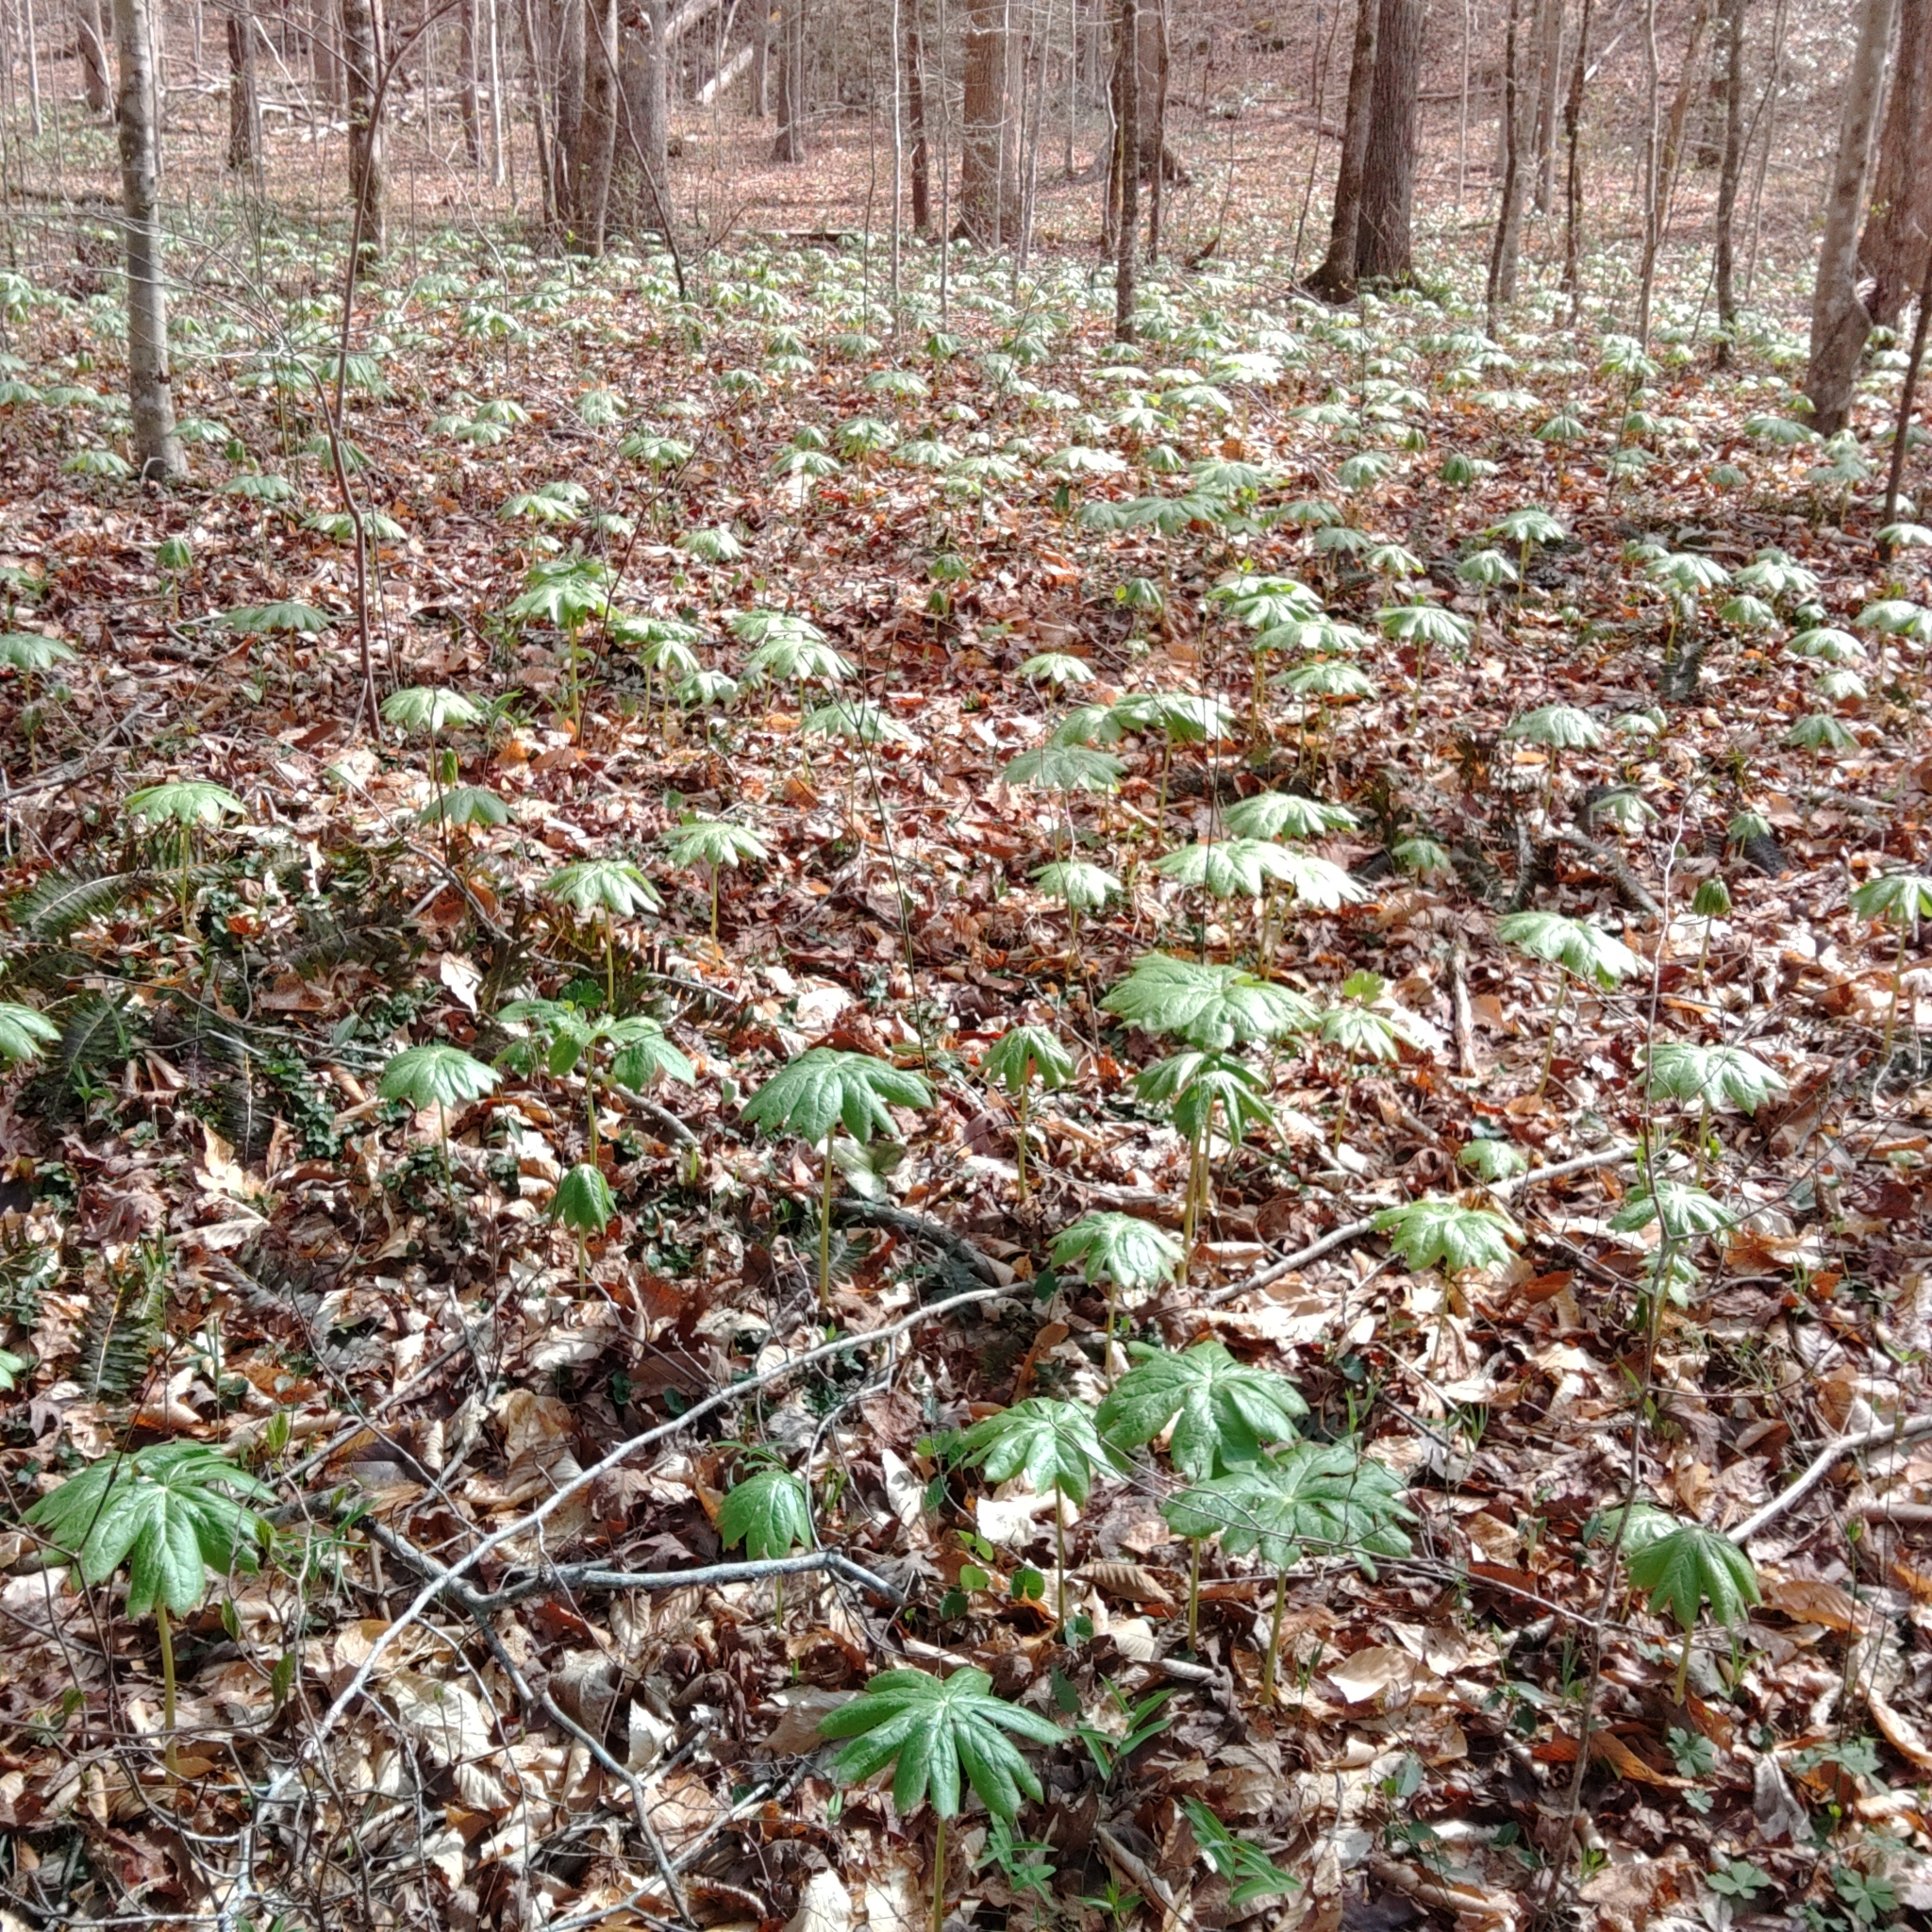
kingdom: Plantae
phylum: Tracheophyta
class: Magnoliopsida
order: Ranunculales
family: Berberidaceae
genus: Podophyllum
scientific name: Podophyllum peltatum
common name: Wild mandrake
